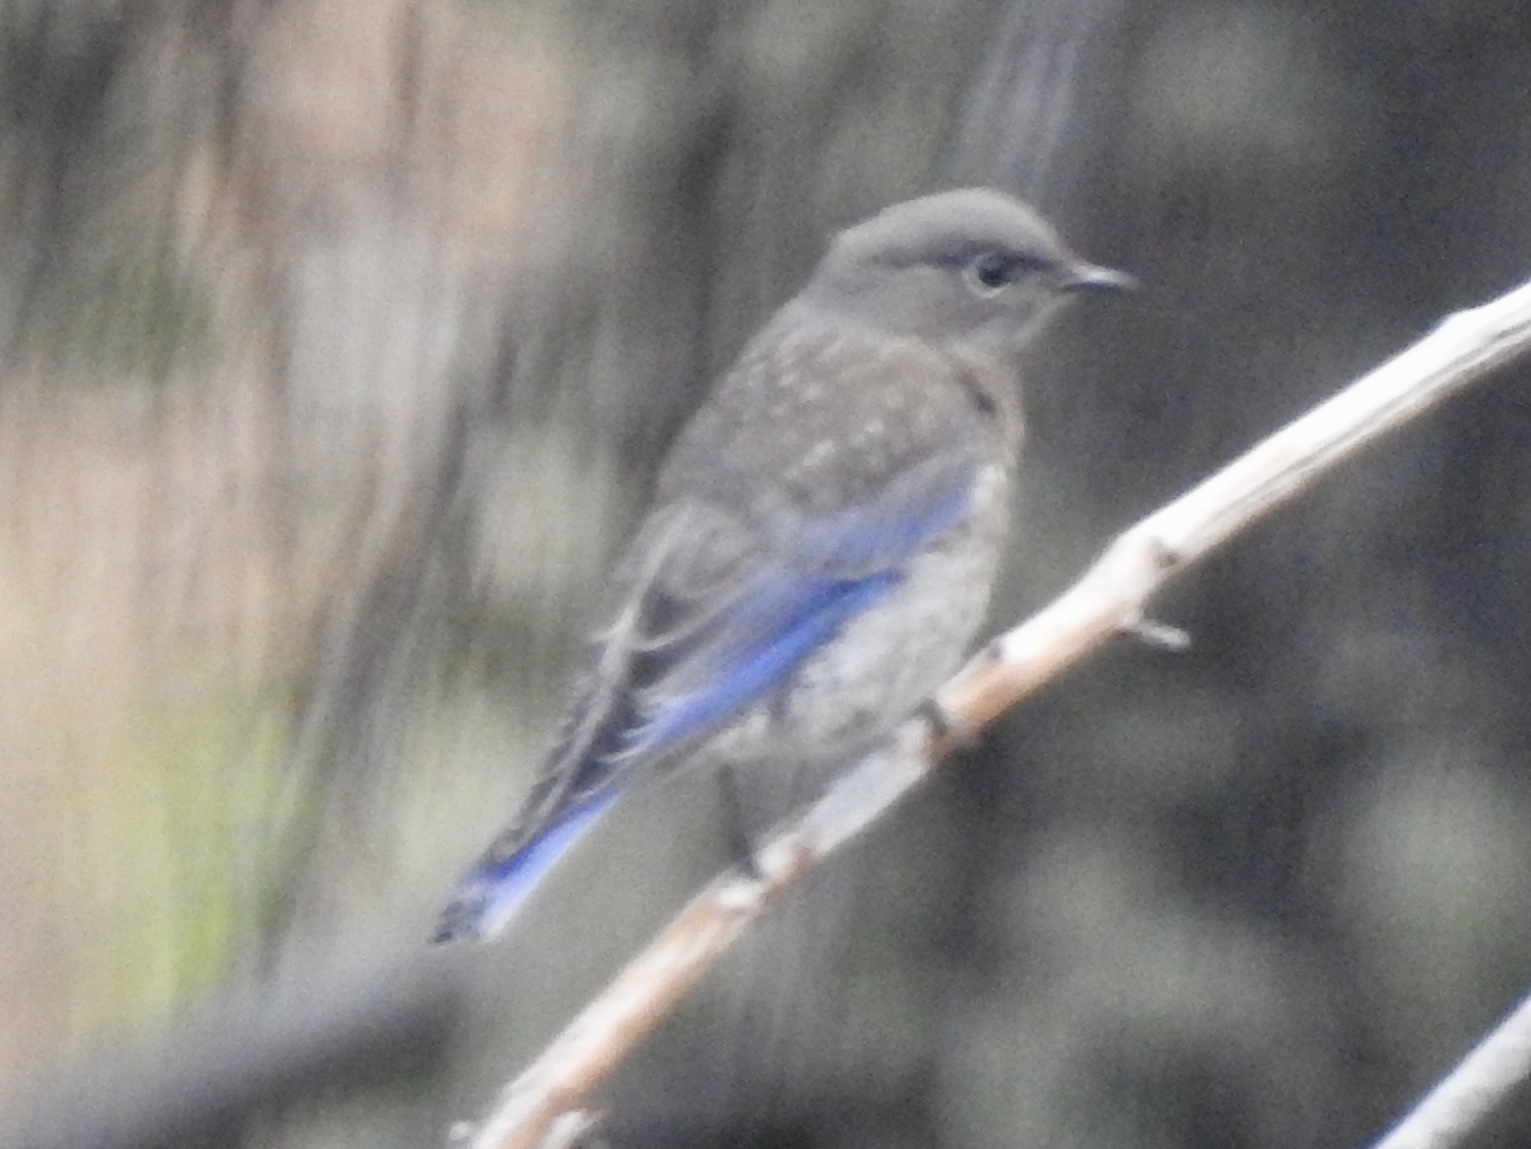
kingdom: Animalia
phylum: Chordata
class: Aves
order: Passeriformes
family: Turdidae
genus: Sialia
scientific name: Sialia mexicana
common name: Western bluebird
